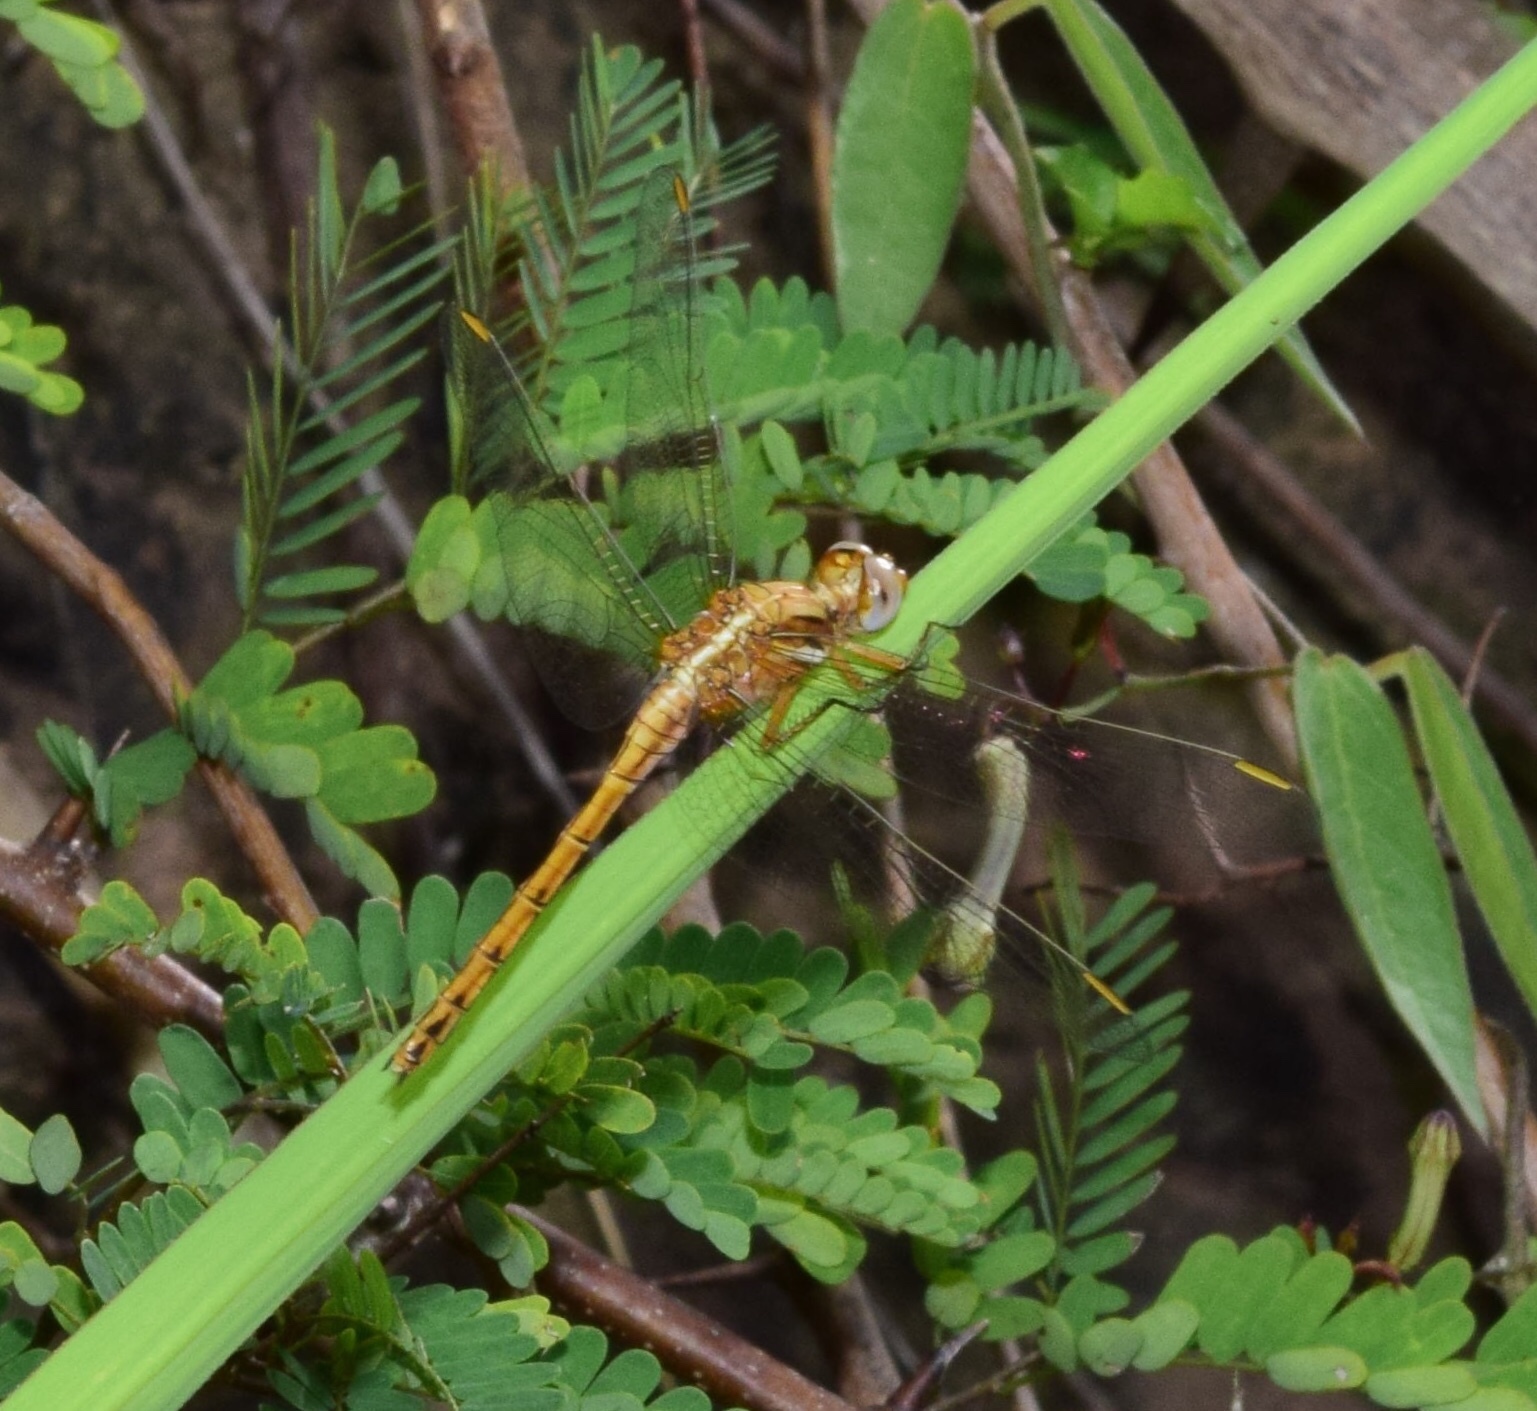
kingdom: Animalia
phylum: Arthropoda
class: Insecta
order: Odonata
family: Libellulidae
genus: Orthetrum
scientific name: Orthetrum chrysostigma
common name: Epaulet skimmer
